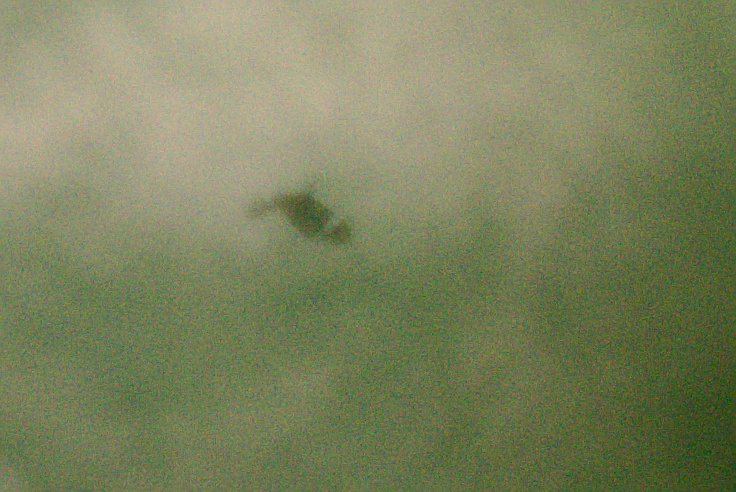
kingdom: Animalia
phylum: Arthropoda
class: Insecta
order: Lepidoptera
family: Erebidae
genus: Nyctemera
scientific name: Nyctemera annulatum
